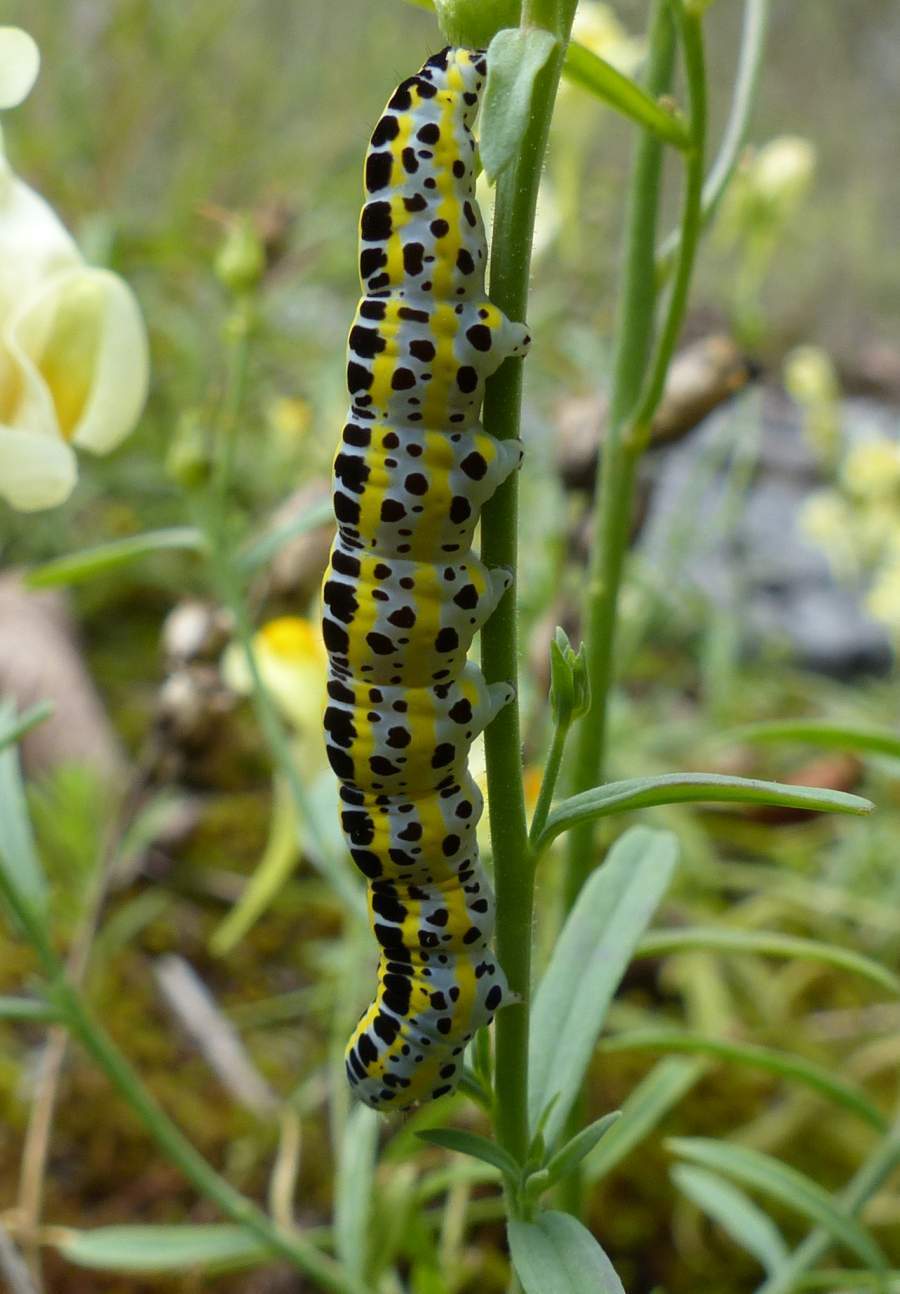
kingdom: Animalia
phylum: Arthropoda
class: Insecta
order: Lepidoptera
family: Noctuidae
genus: Calophasia
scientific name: Calophasia lunula
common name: Toadflax brocade
